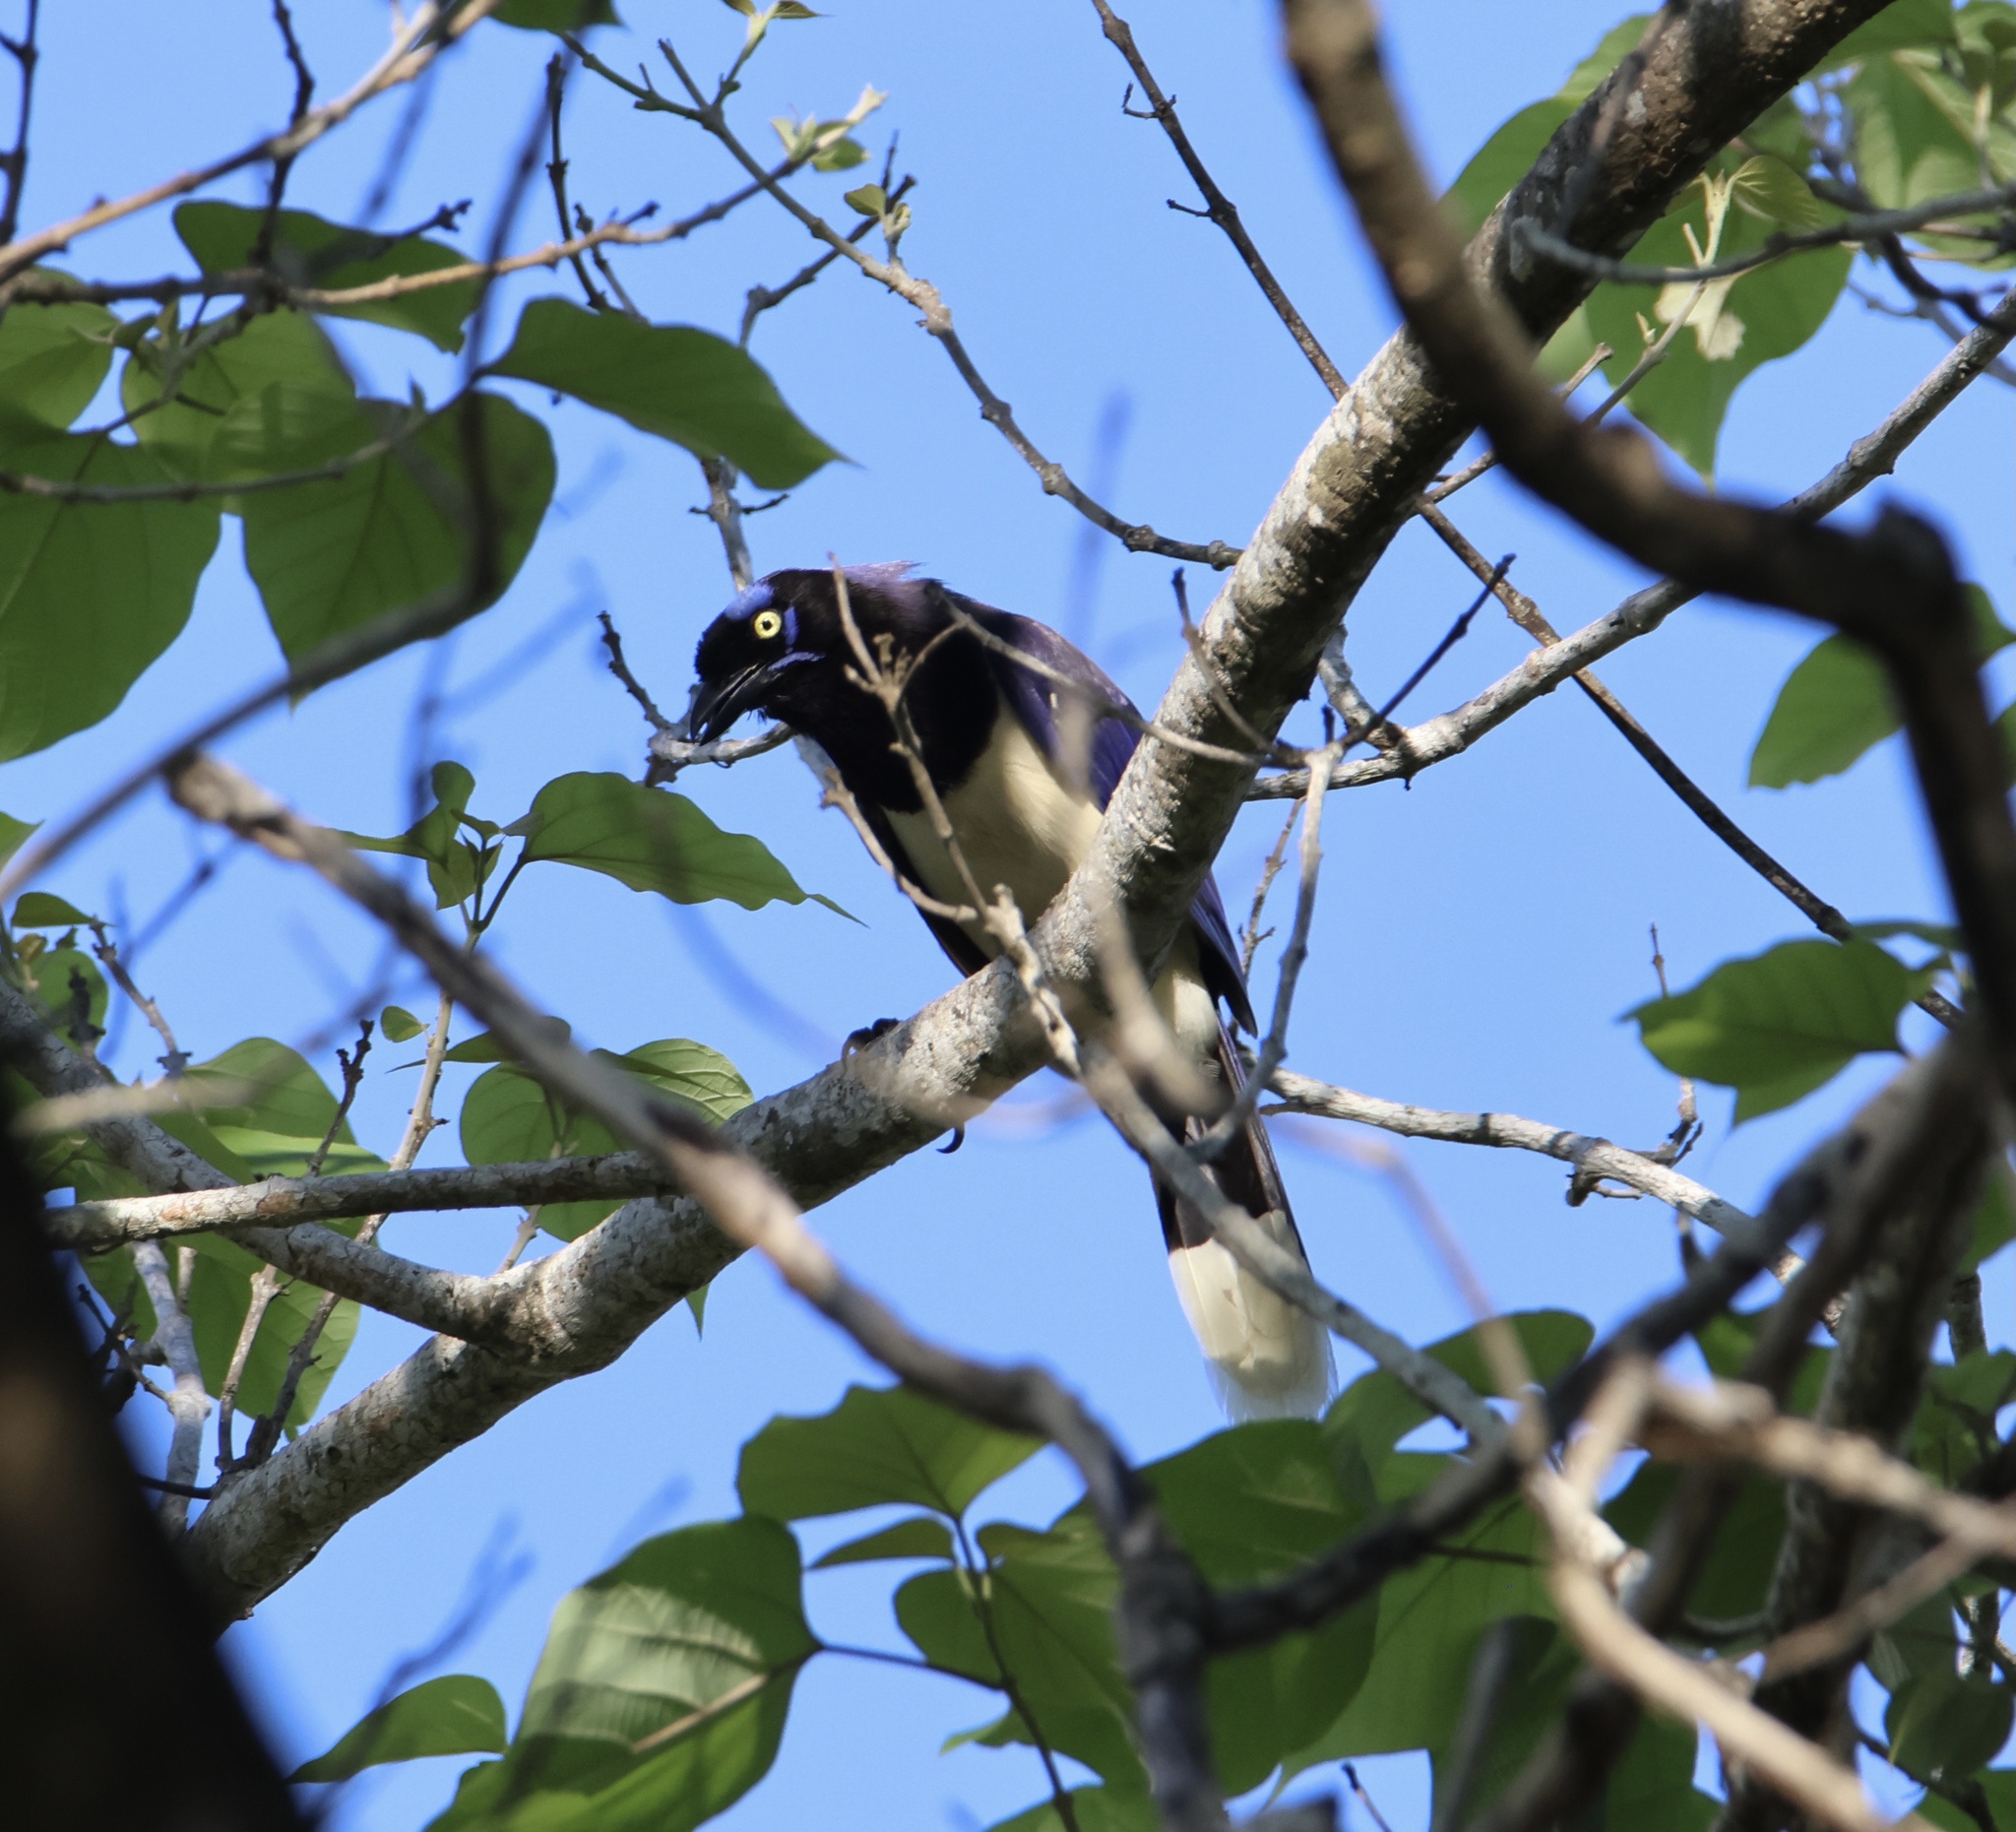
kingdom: Animalia
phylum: Chordata
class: Aves
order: Passeriformes
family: Corvidae
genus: Cyanocorax
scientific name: Cyanocorax affinis
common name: Black-chested jay
